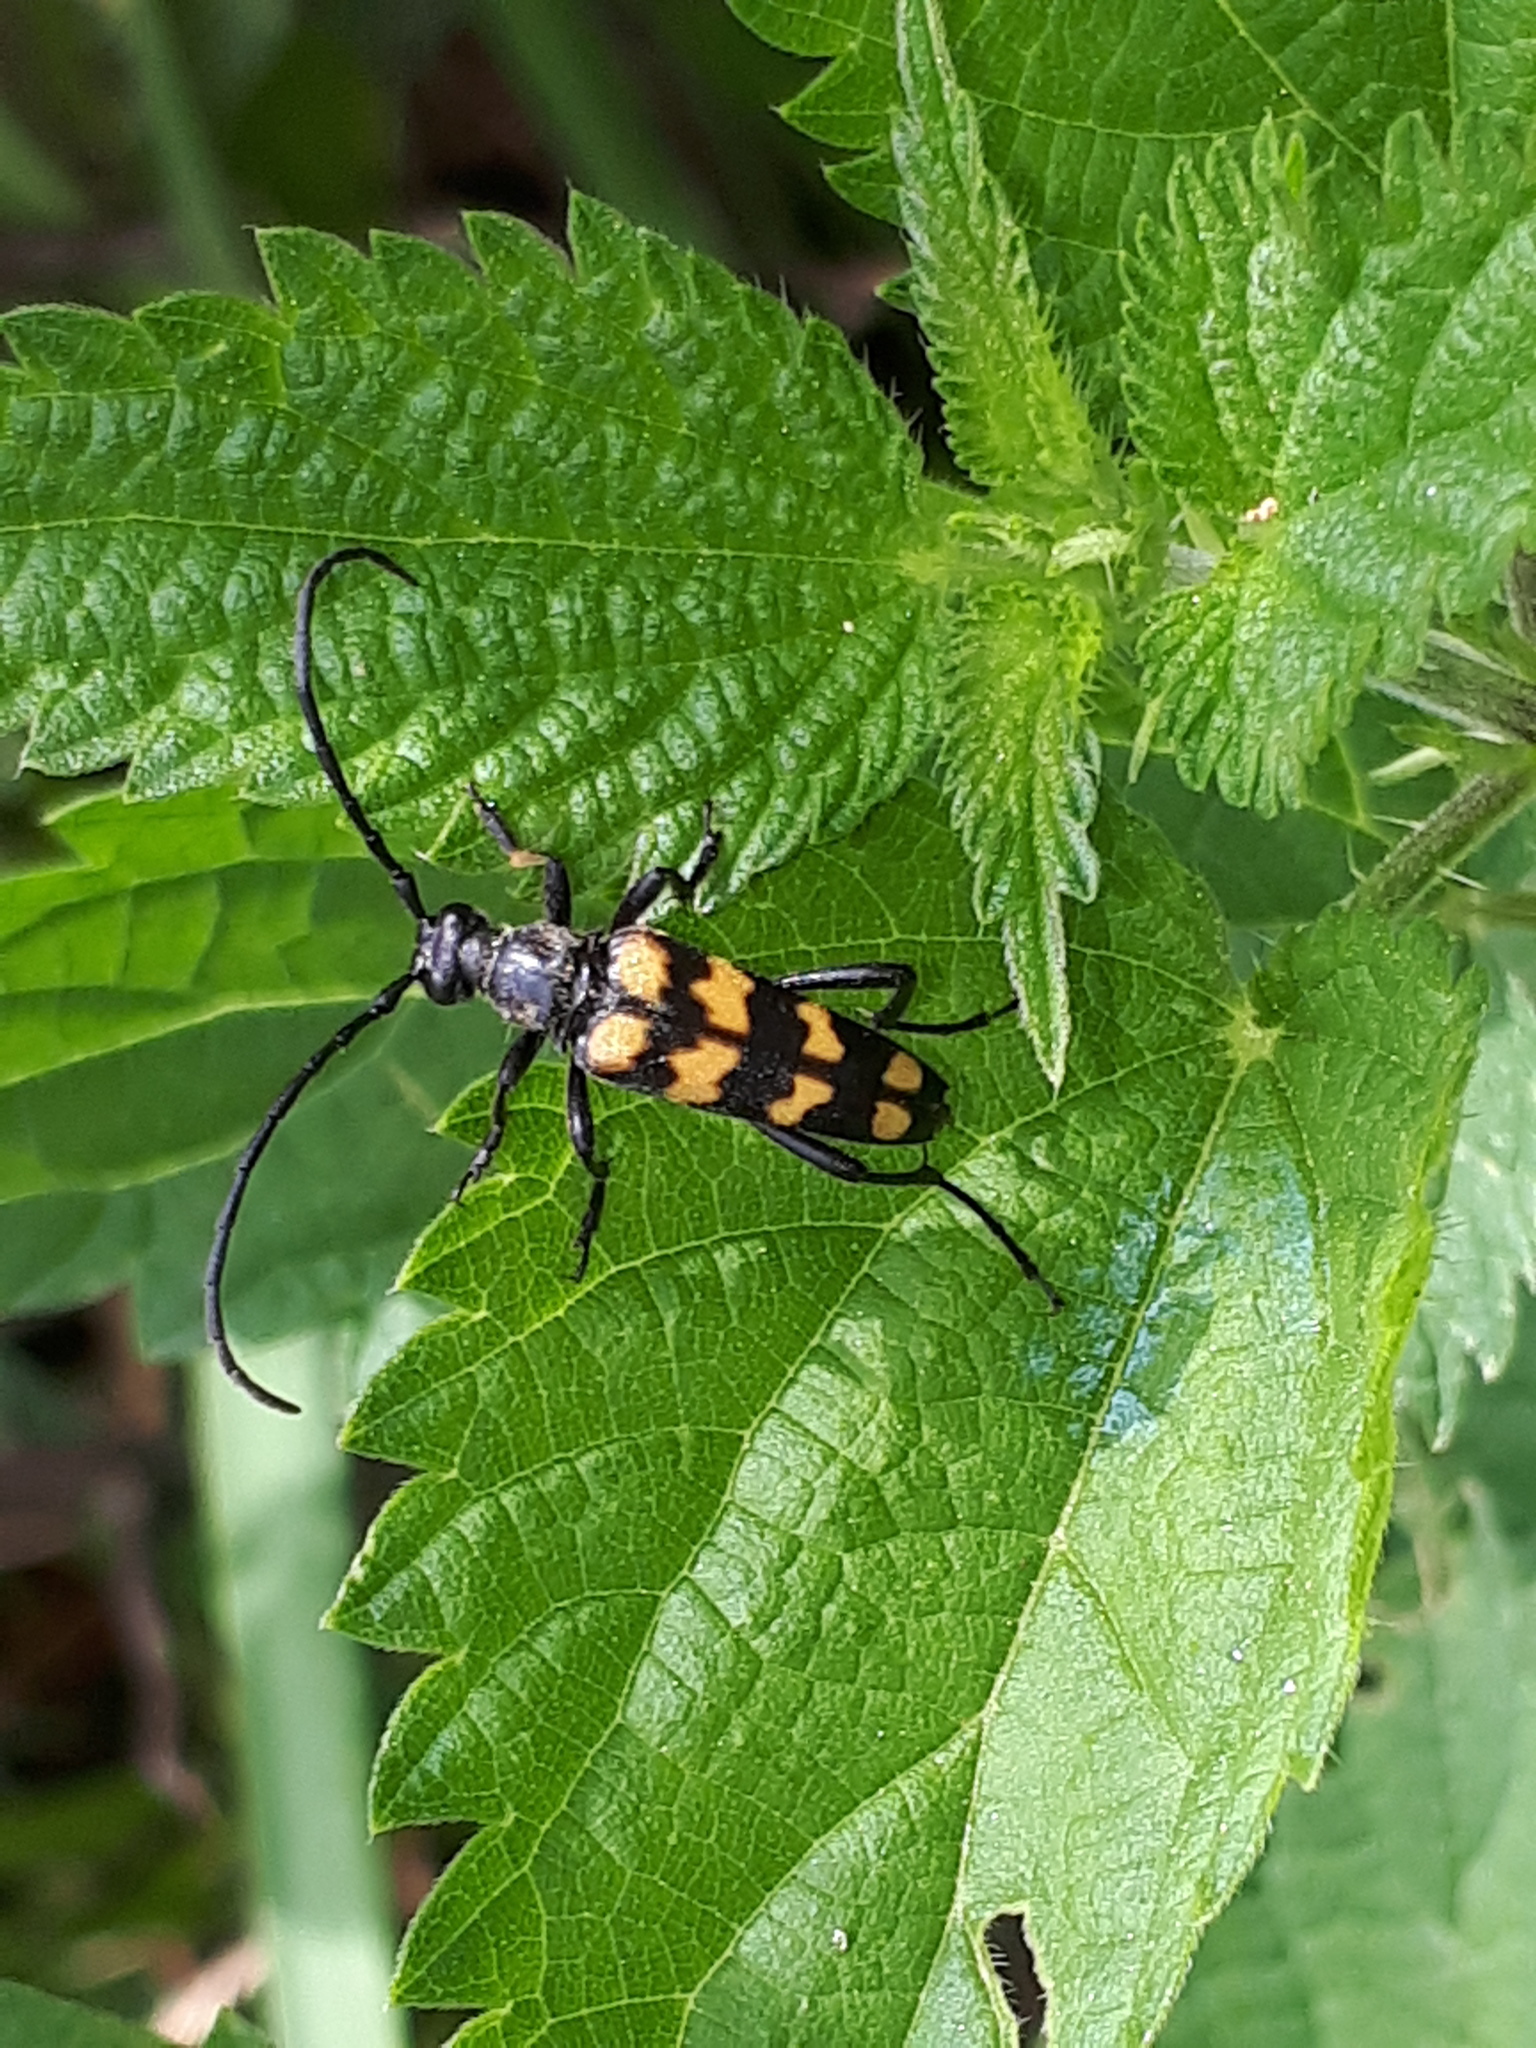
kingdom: Animalia
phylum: Arthropoda
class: Insecta
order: Coleoptera
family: Cerambycidae
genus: Leptura
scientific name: Leptura quadrifasciata
